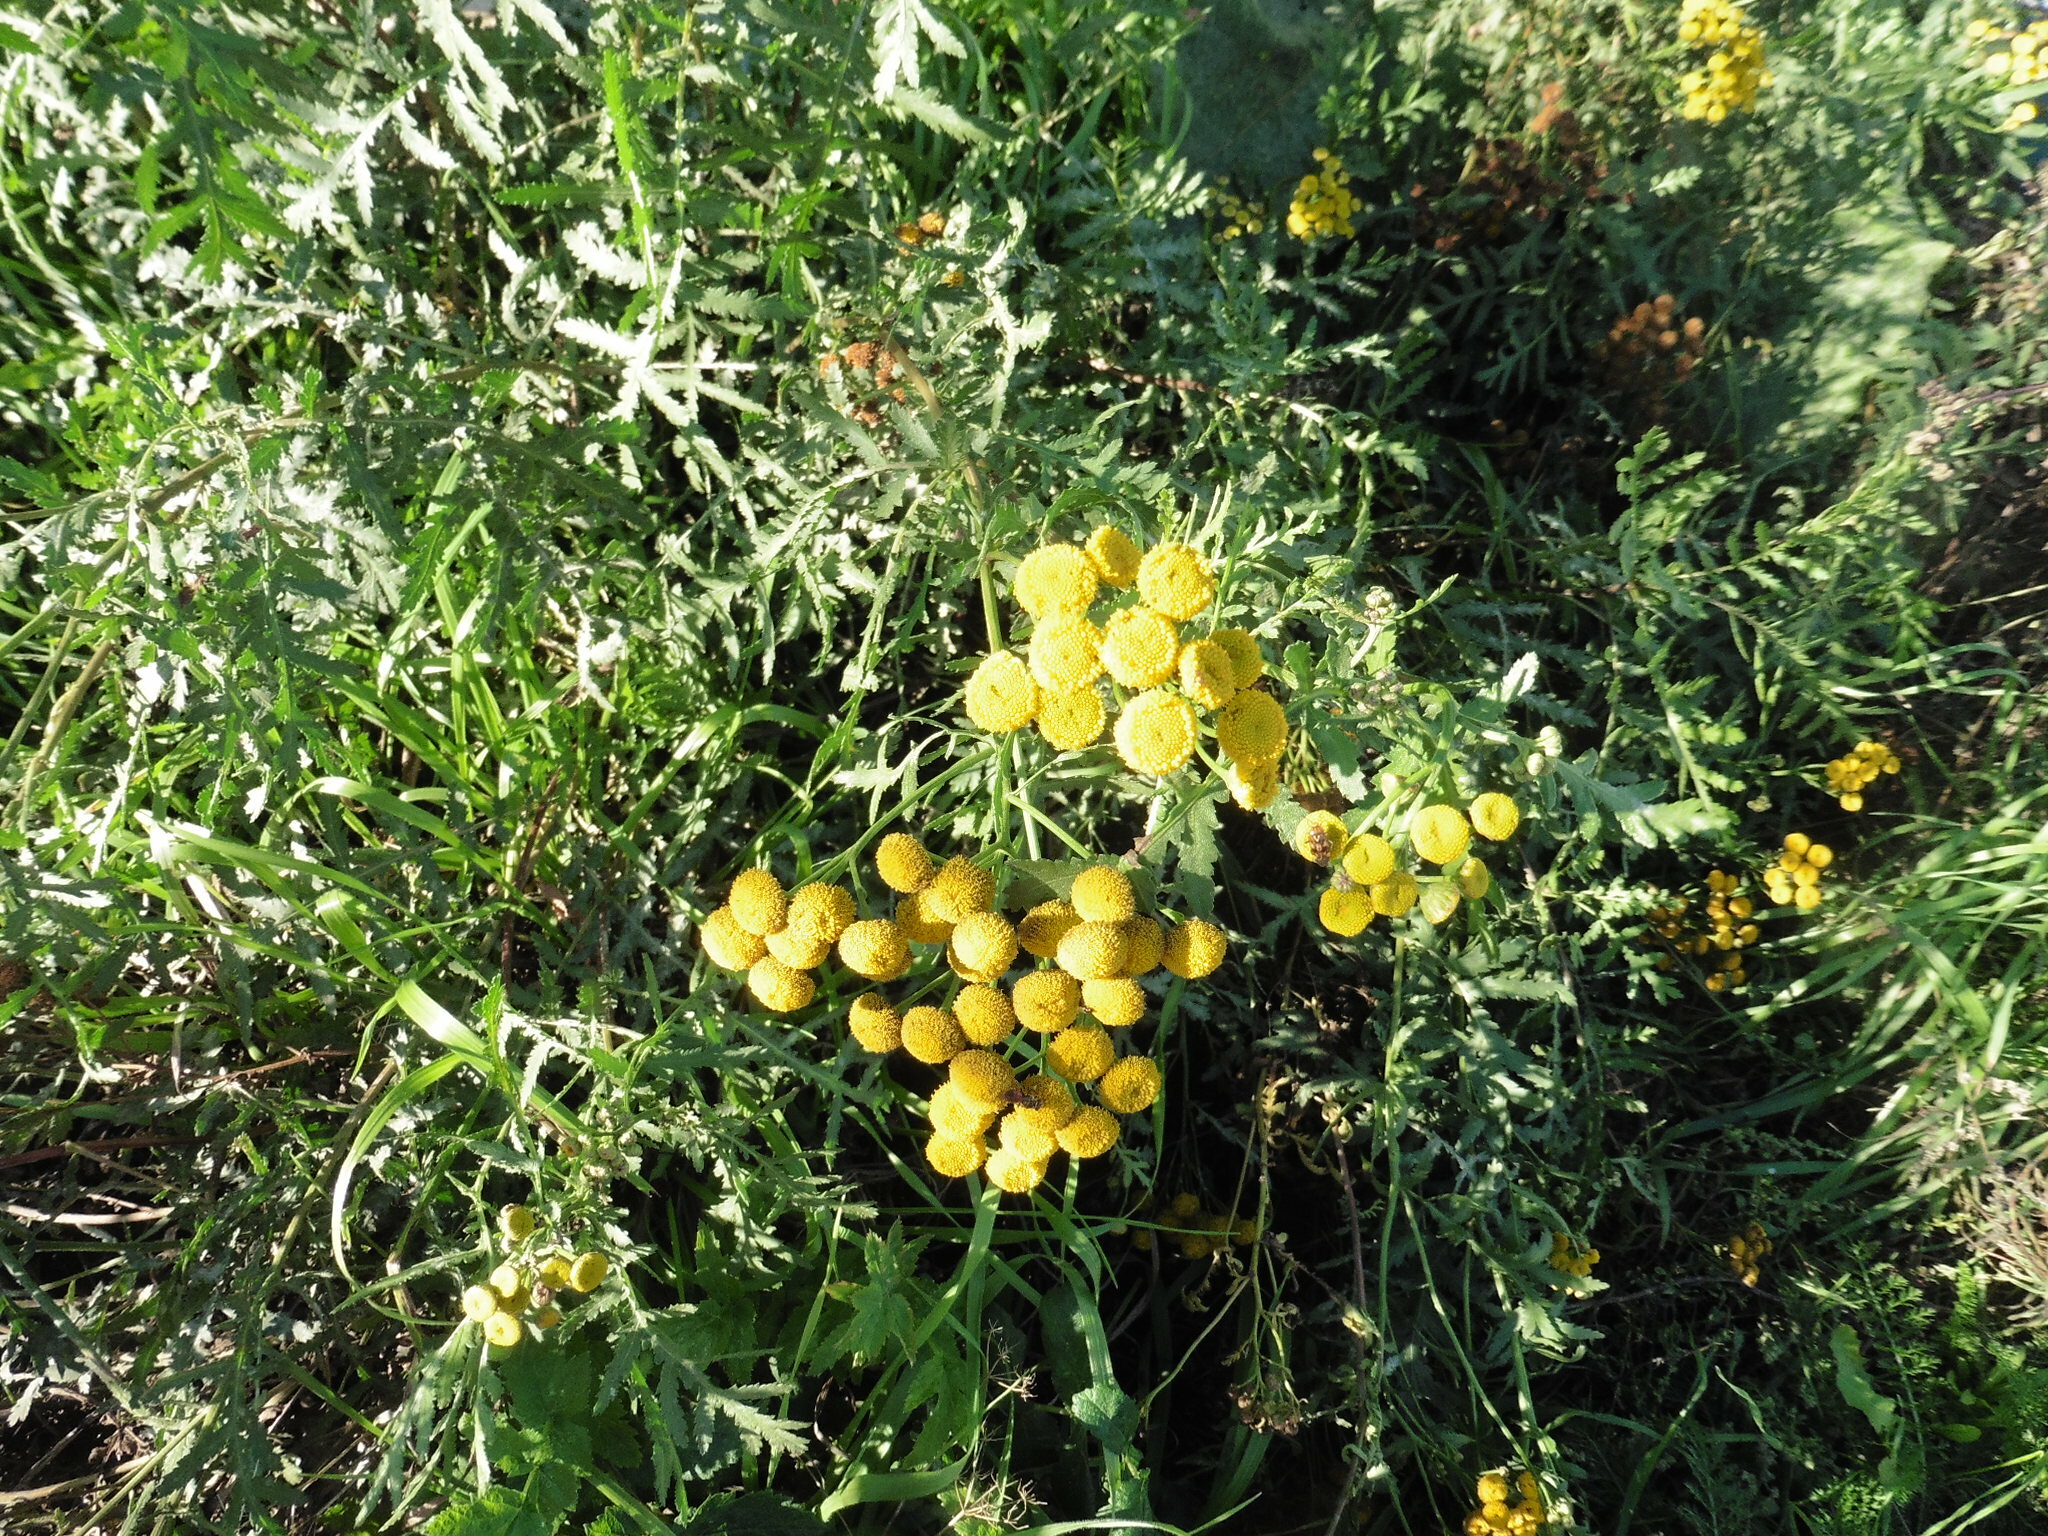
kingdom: Plantae
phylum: Tracheophyta
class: Magnoliopsida
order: Asterales
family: Asteraceae
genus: Tanacetum
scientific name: Tanacetum vulgare
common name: Common tansy
